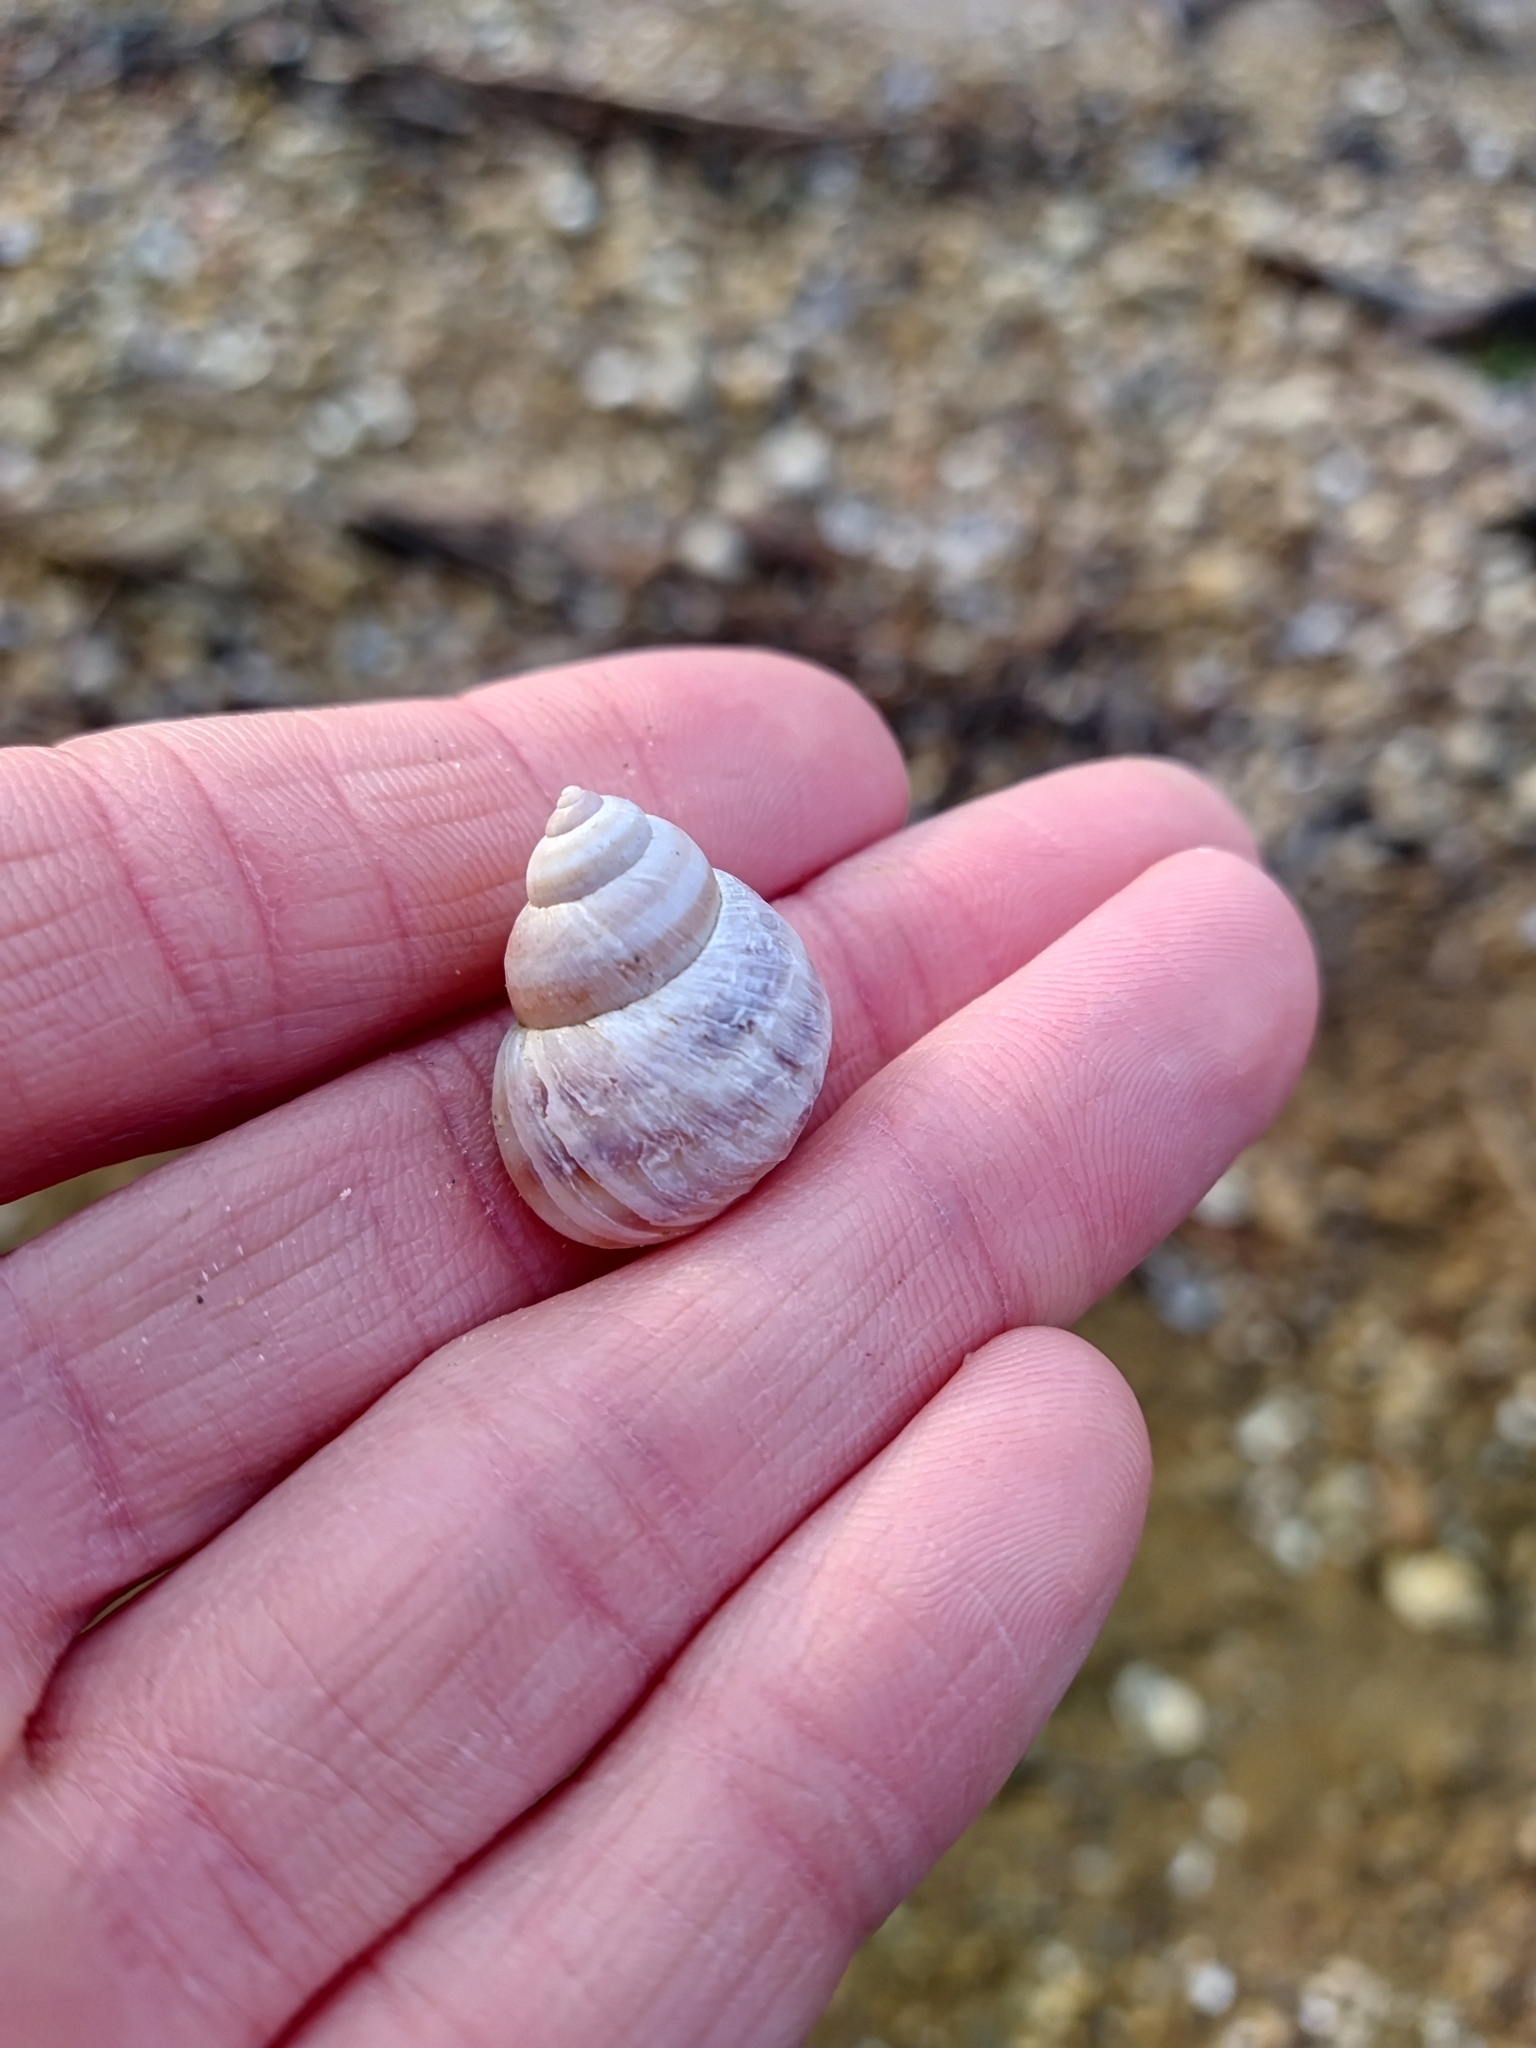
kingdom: Animalia
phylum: Mollusca
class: Gastropoda
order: Architaenioglossa
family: Viviparidae
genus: Viviparus
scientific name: Viviparus acerosus
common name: Danube river snail
